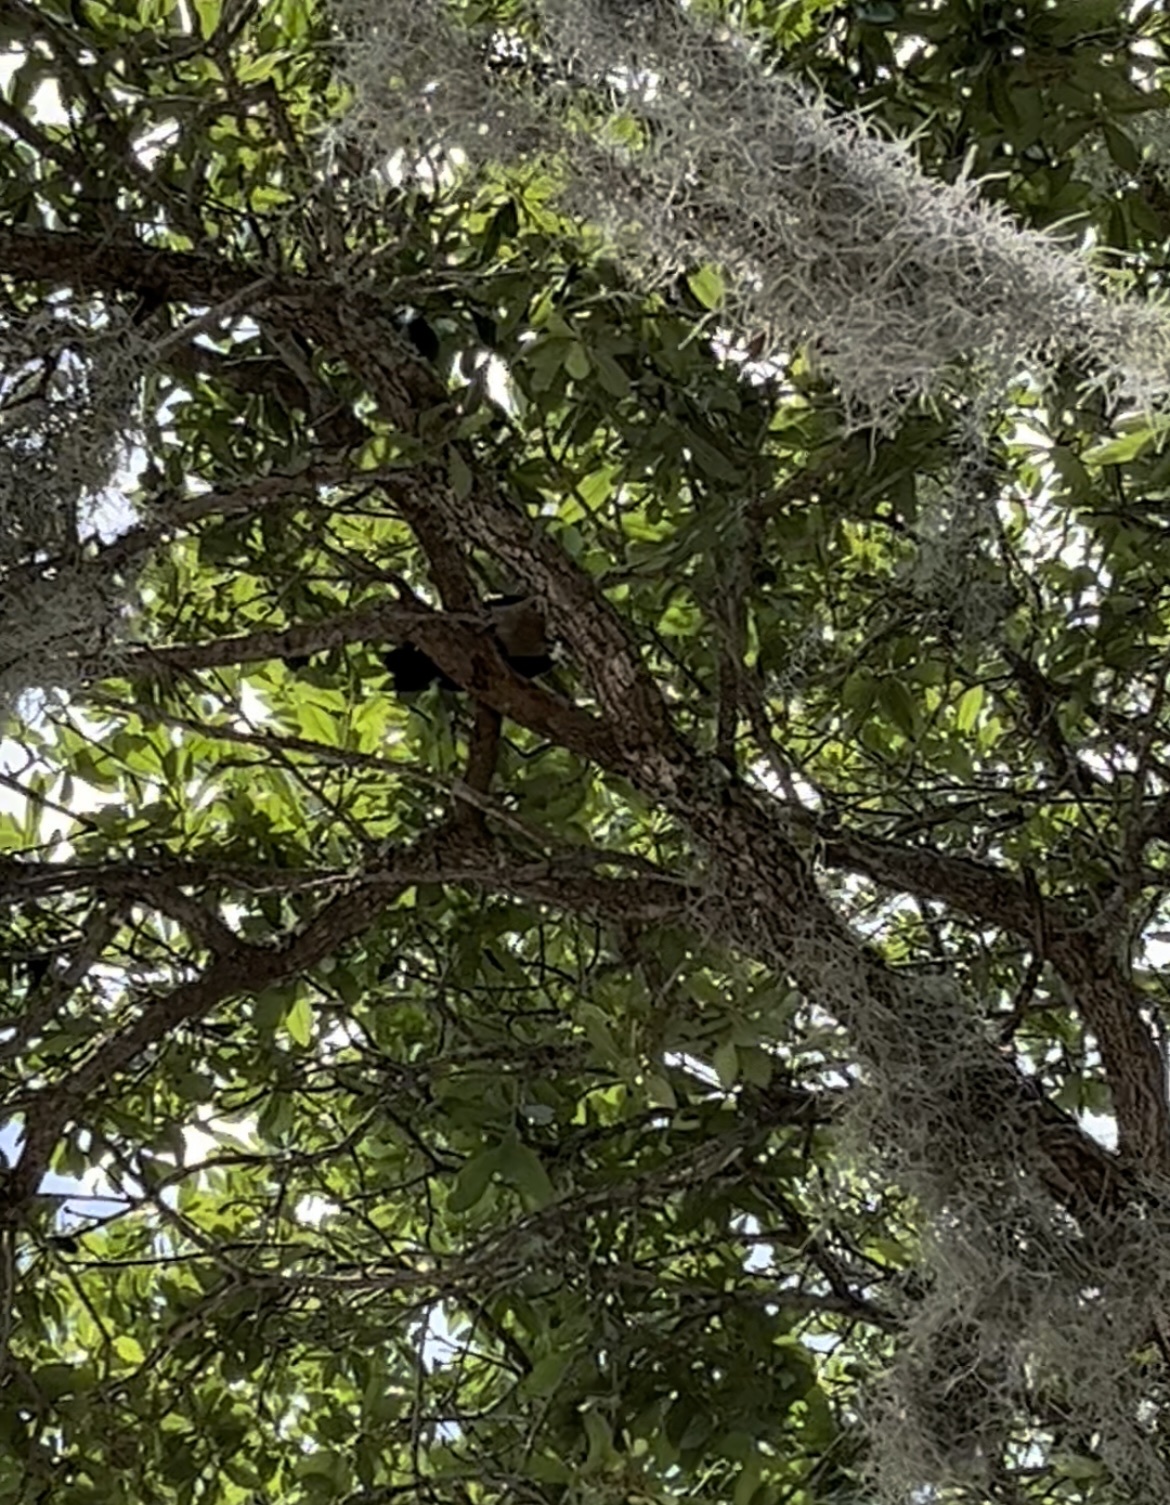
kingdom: Animalia
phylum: Chordata
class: Aves
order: Passeriformes
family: Icteridae
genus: Quiscalus
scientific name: Quiscalus major
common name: Boat-tailed grackle
